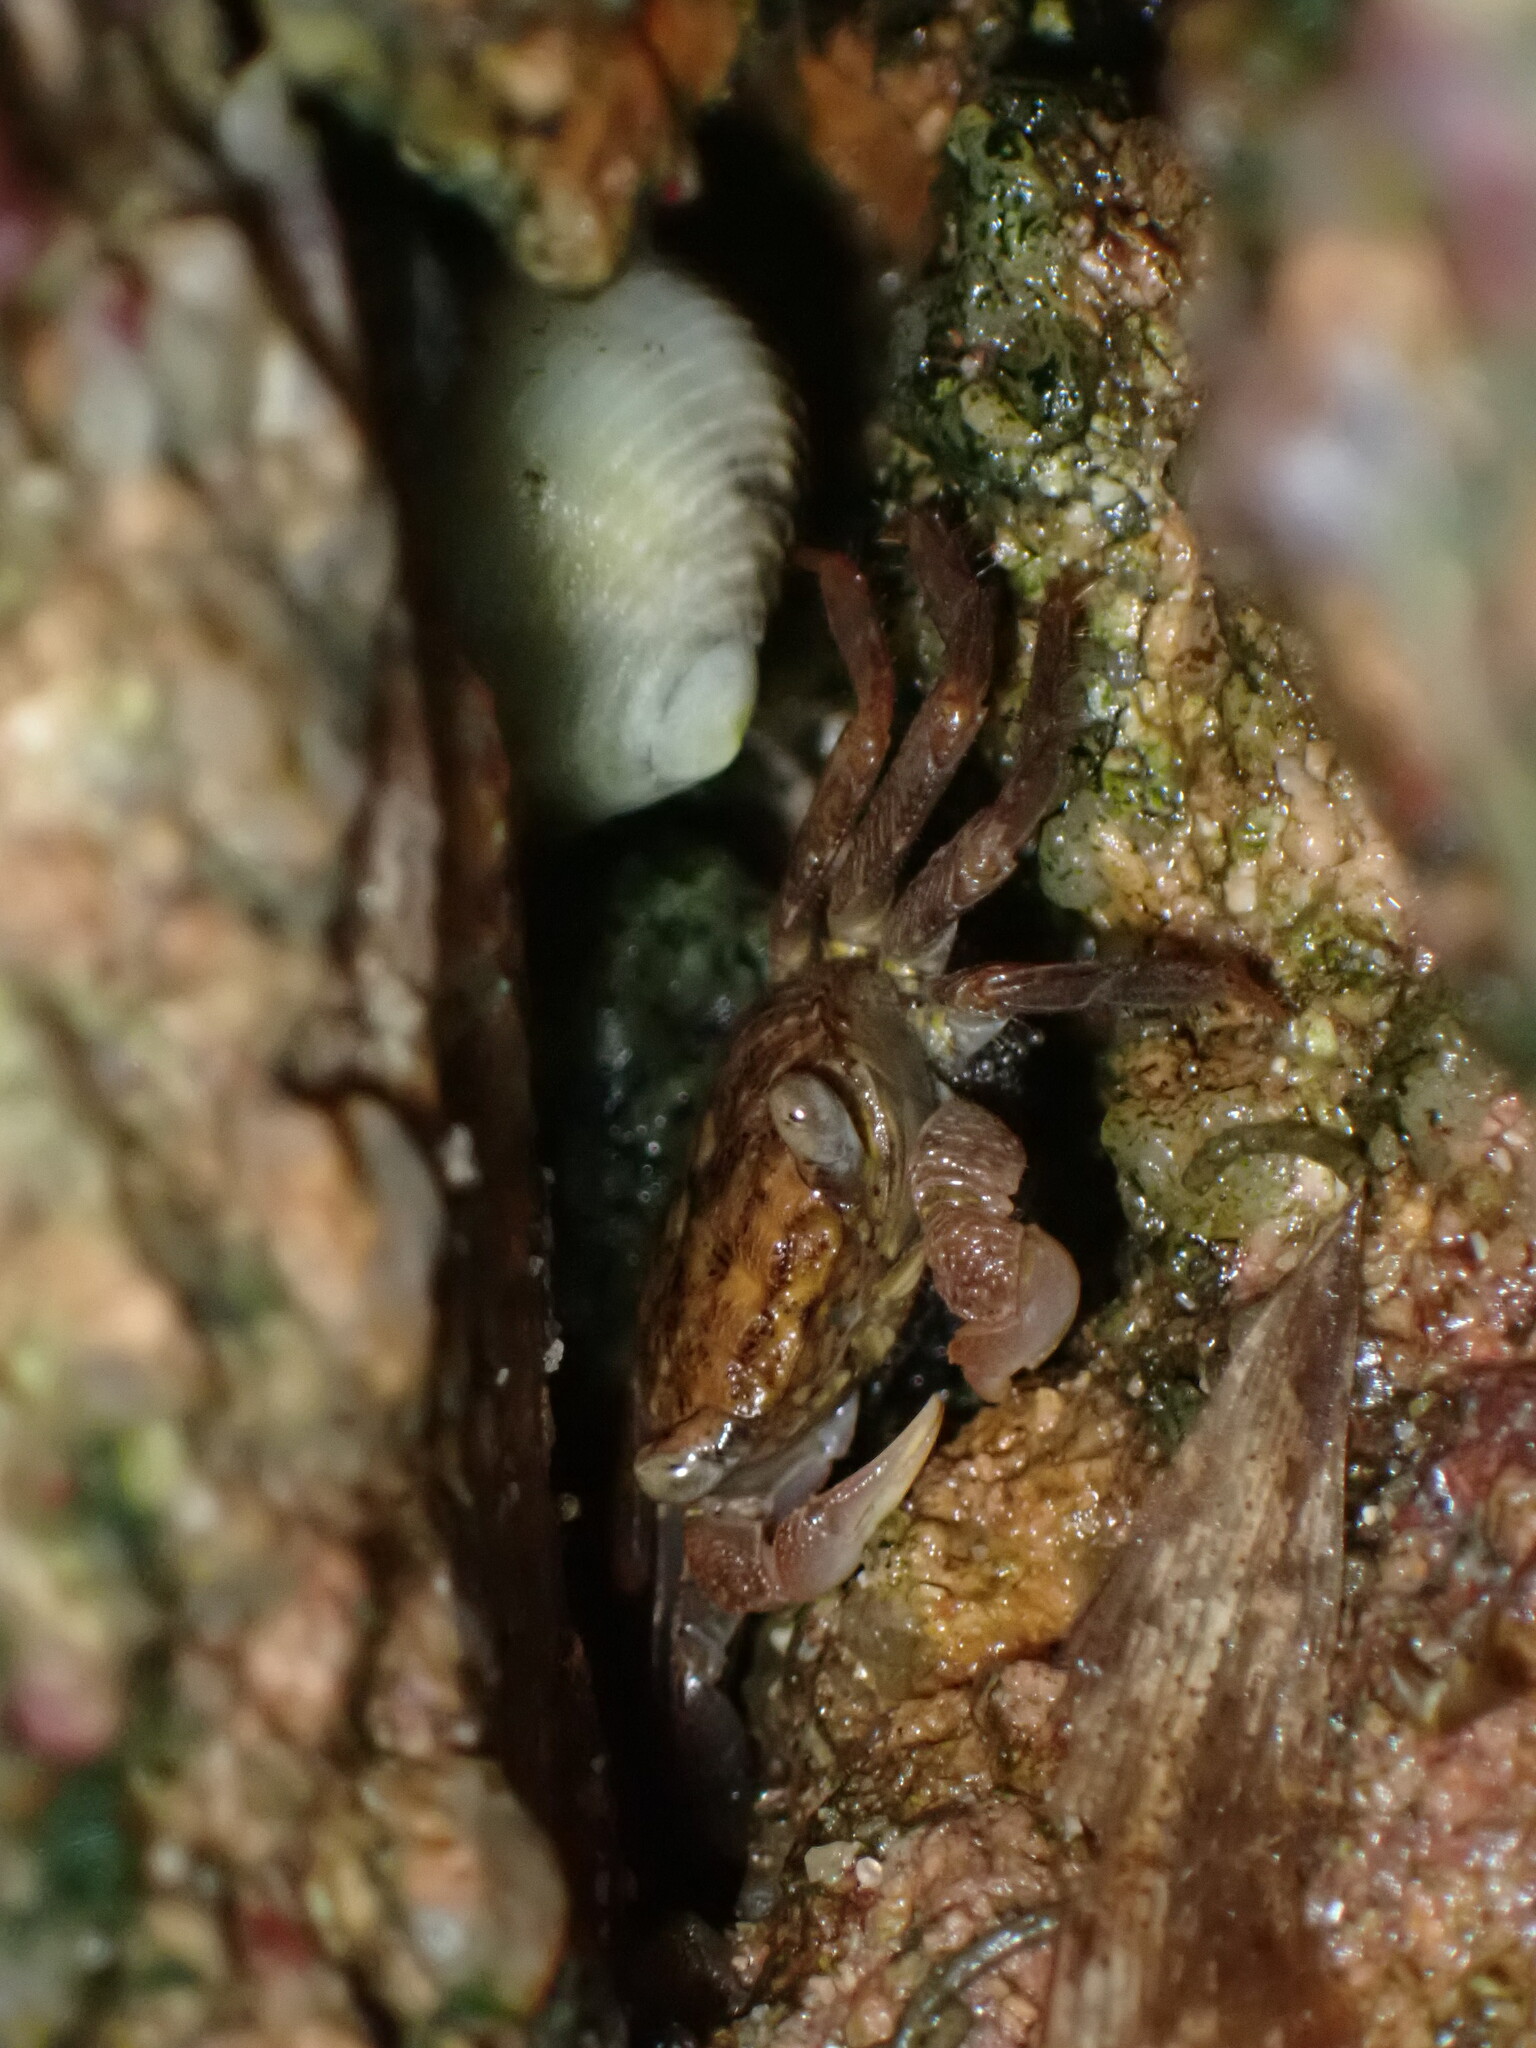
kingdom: Animalia
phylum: Arthropoda
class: Malacostraca
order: Decapoda
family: Sesarmidae
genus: Parasesarma
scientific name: Parasesarma pictum
